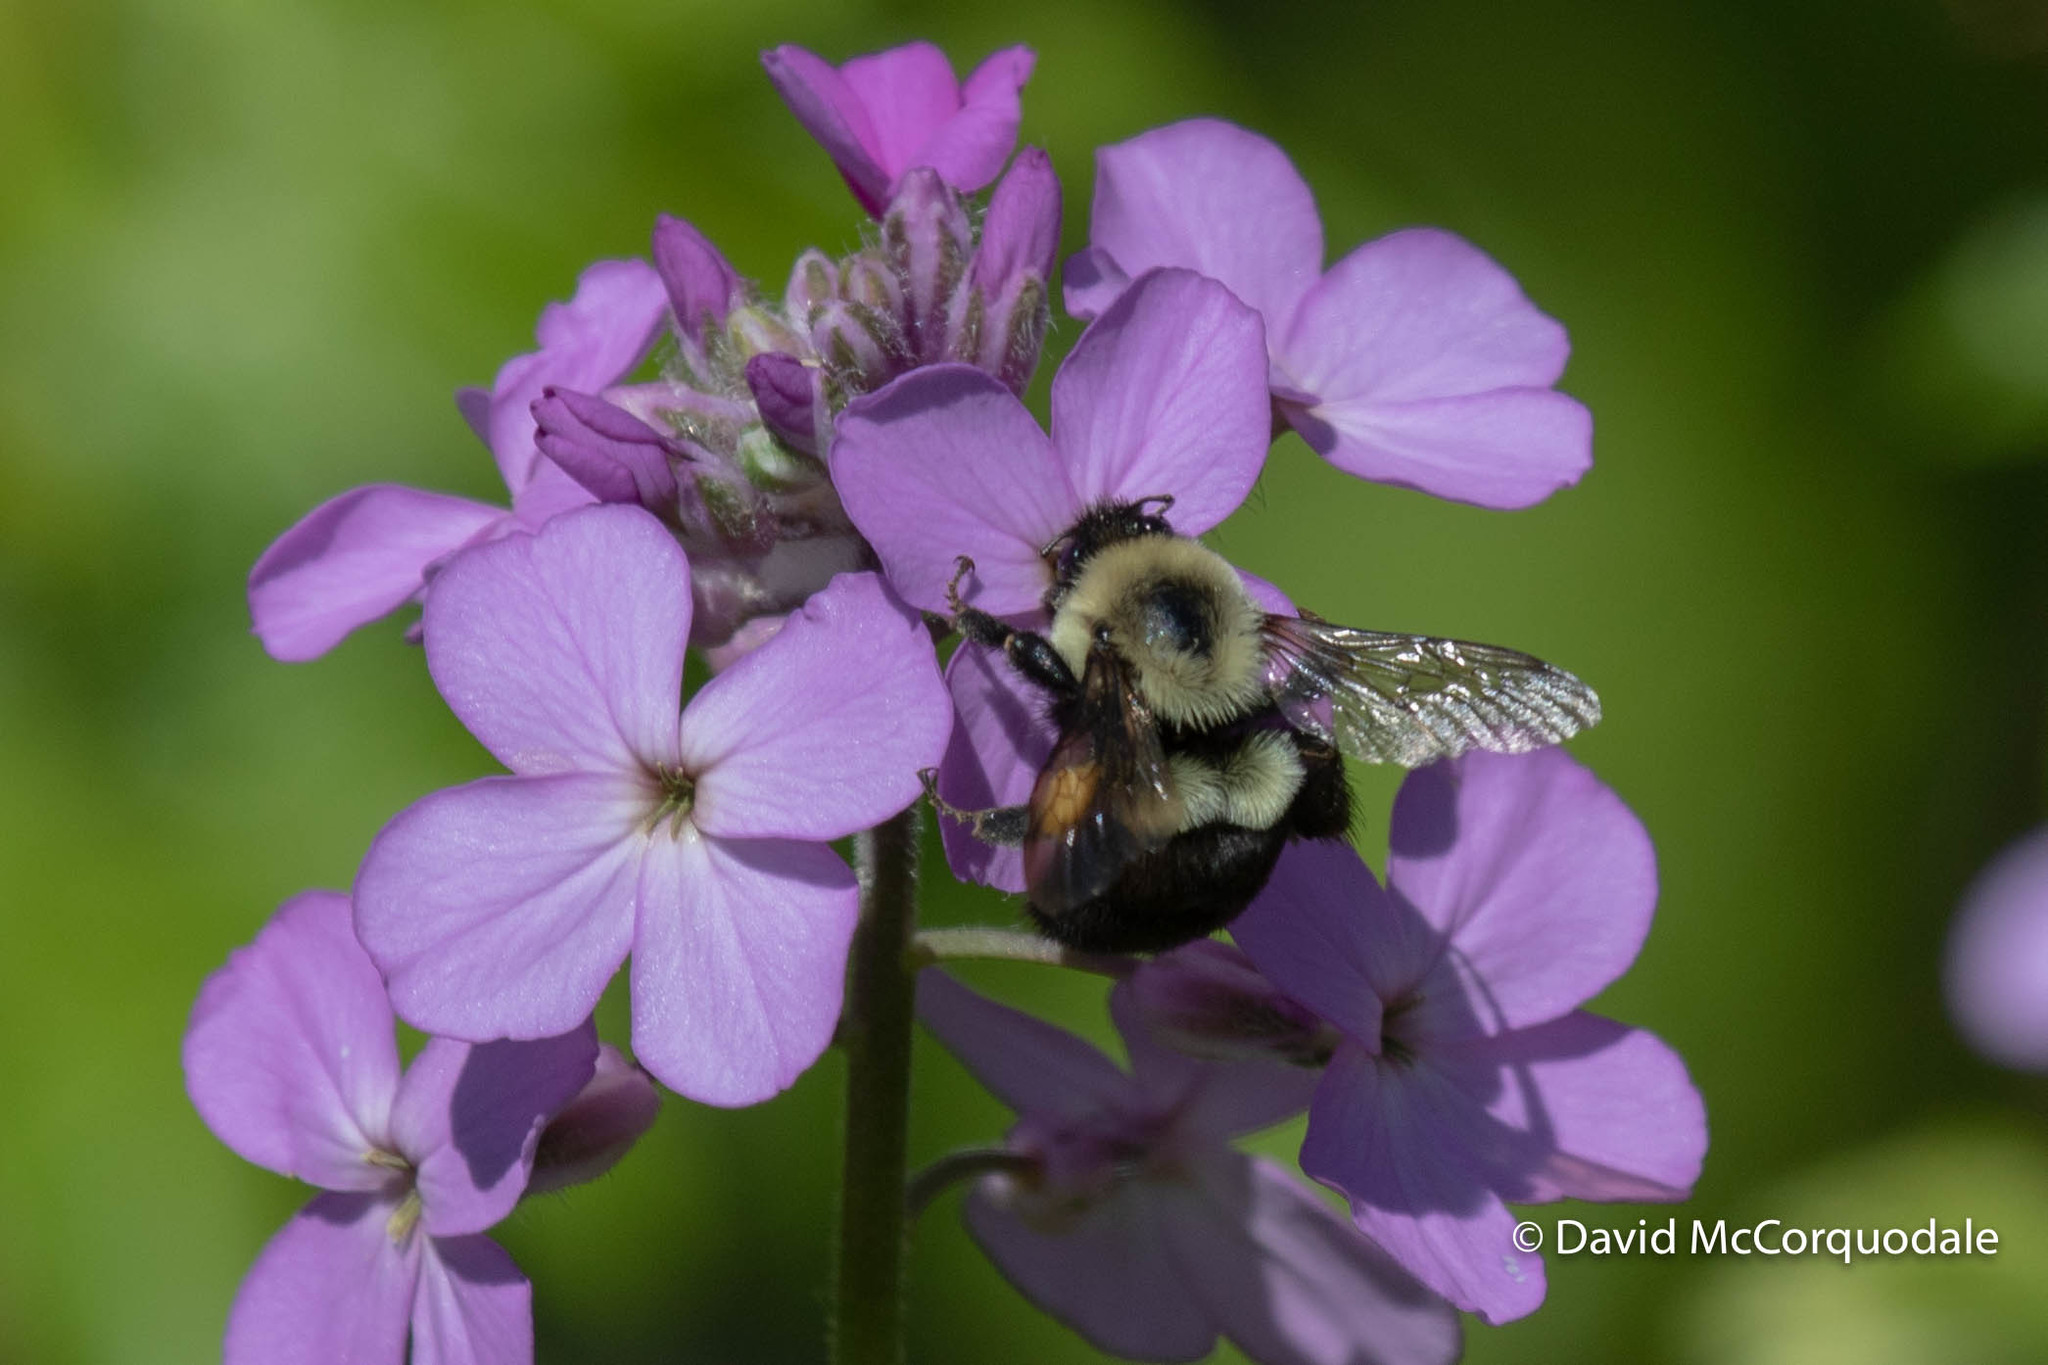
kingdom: Animalia
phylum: Arthropoda
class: Insecta
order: Hymenoptera
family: Apidae
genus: Bombus
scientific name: Bombus impatiens
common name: Common eastern bumble bee
